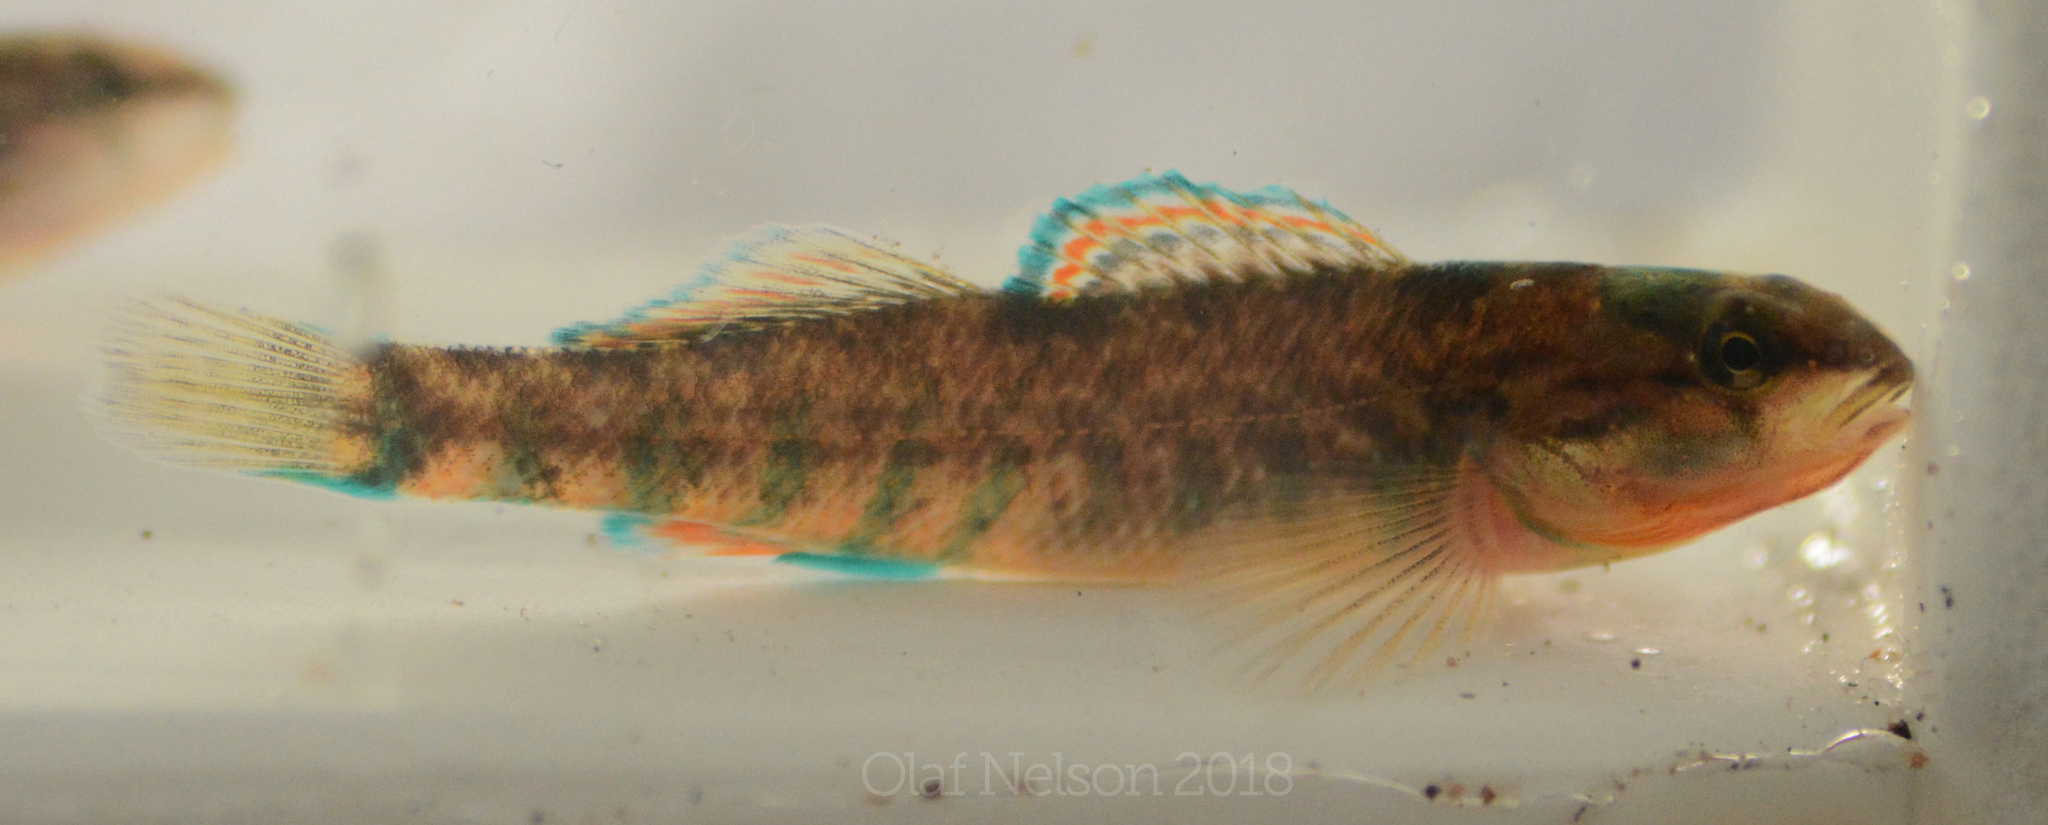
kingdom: Animalia
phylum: Chordata
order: Perciformes
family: Percidae
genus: Etheostoma
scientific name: Etheostoma caeruleum
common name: Rainbow darter
